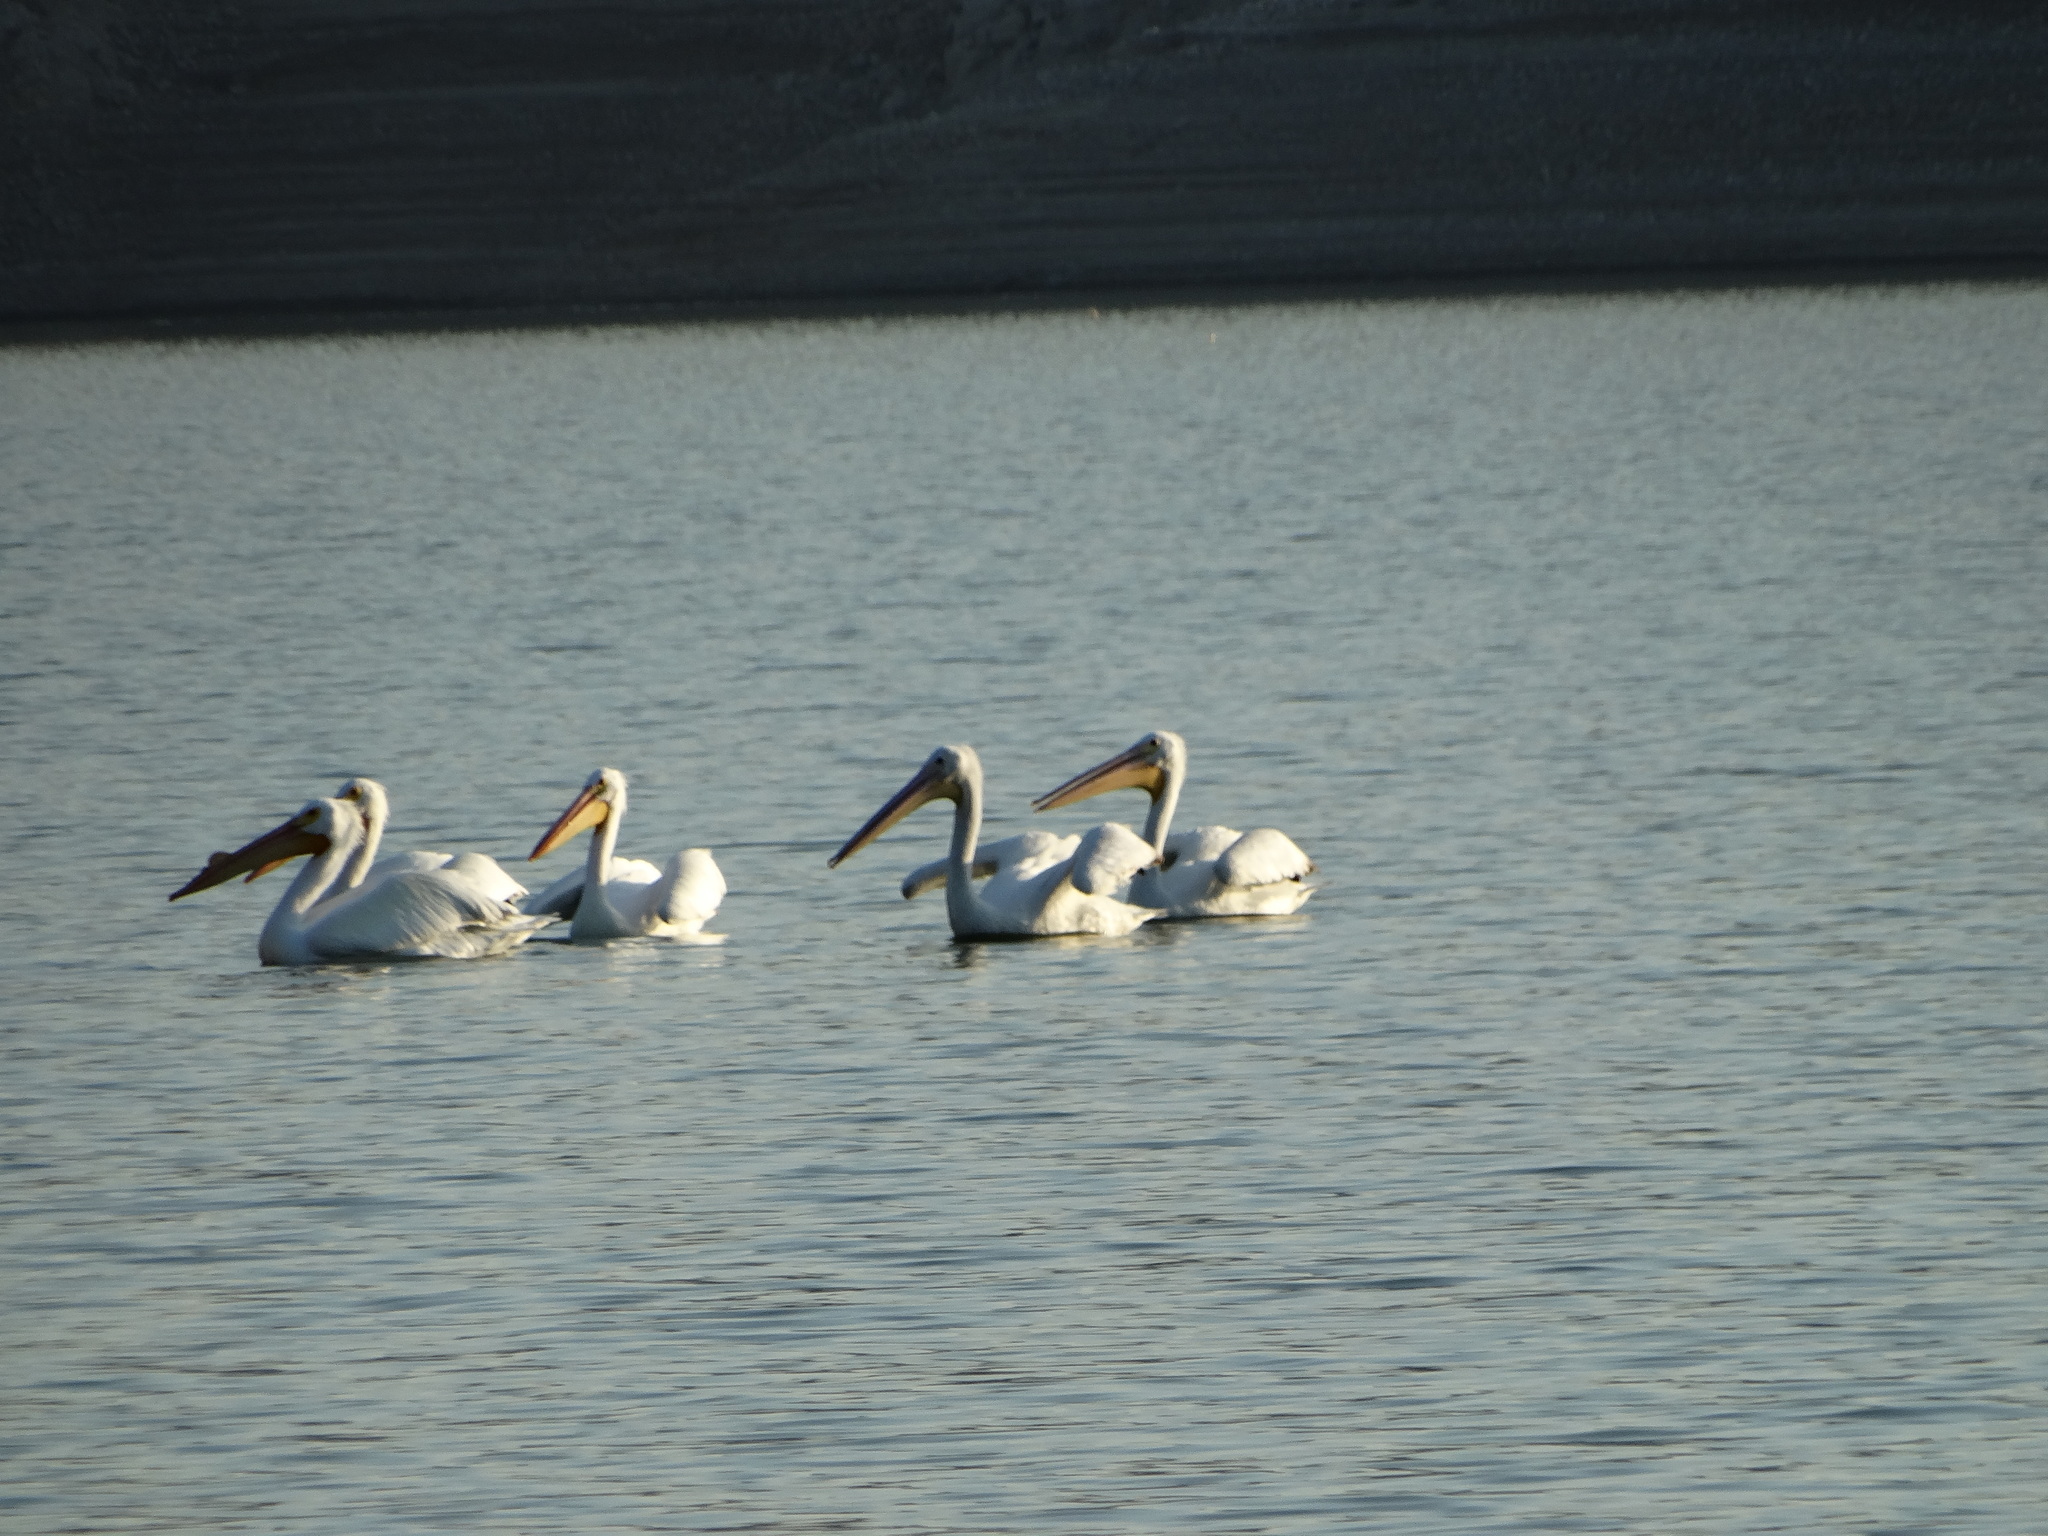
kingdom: Animalia
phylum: Chordata
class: Aves
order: Pelecaniformes
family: Pelecanidae
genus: Pelecanus
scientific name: Pelecanus erythrorhynchos
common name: American white pelican
